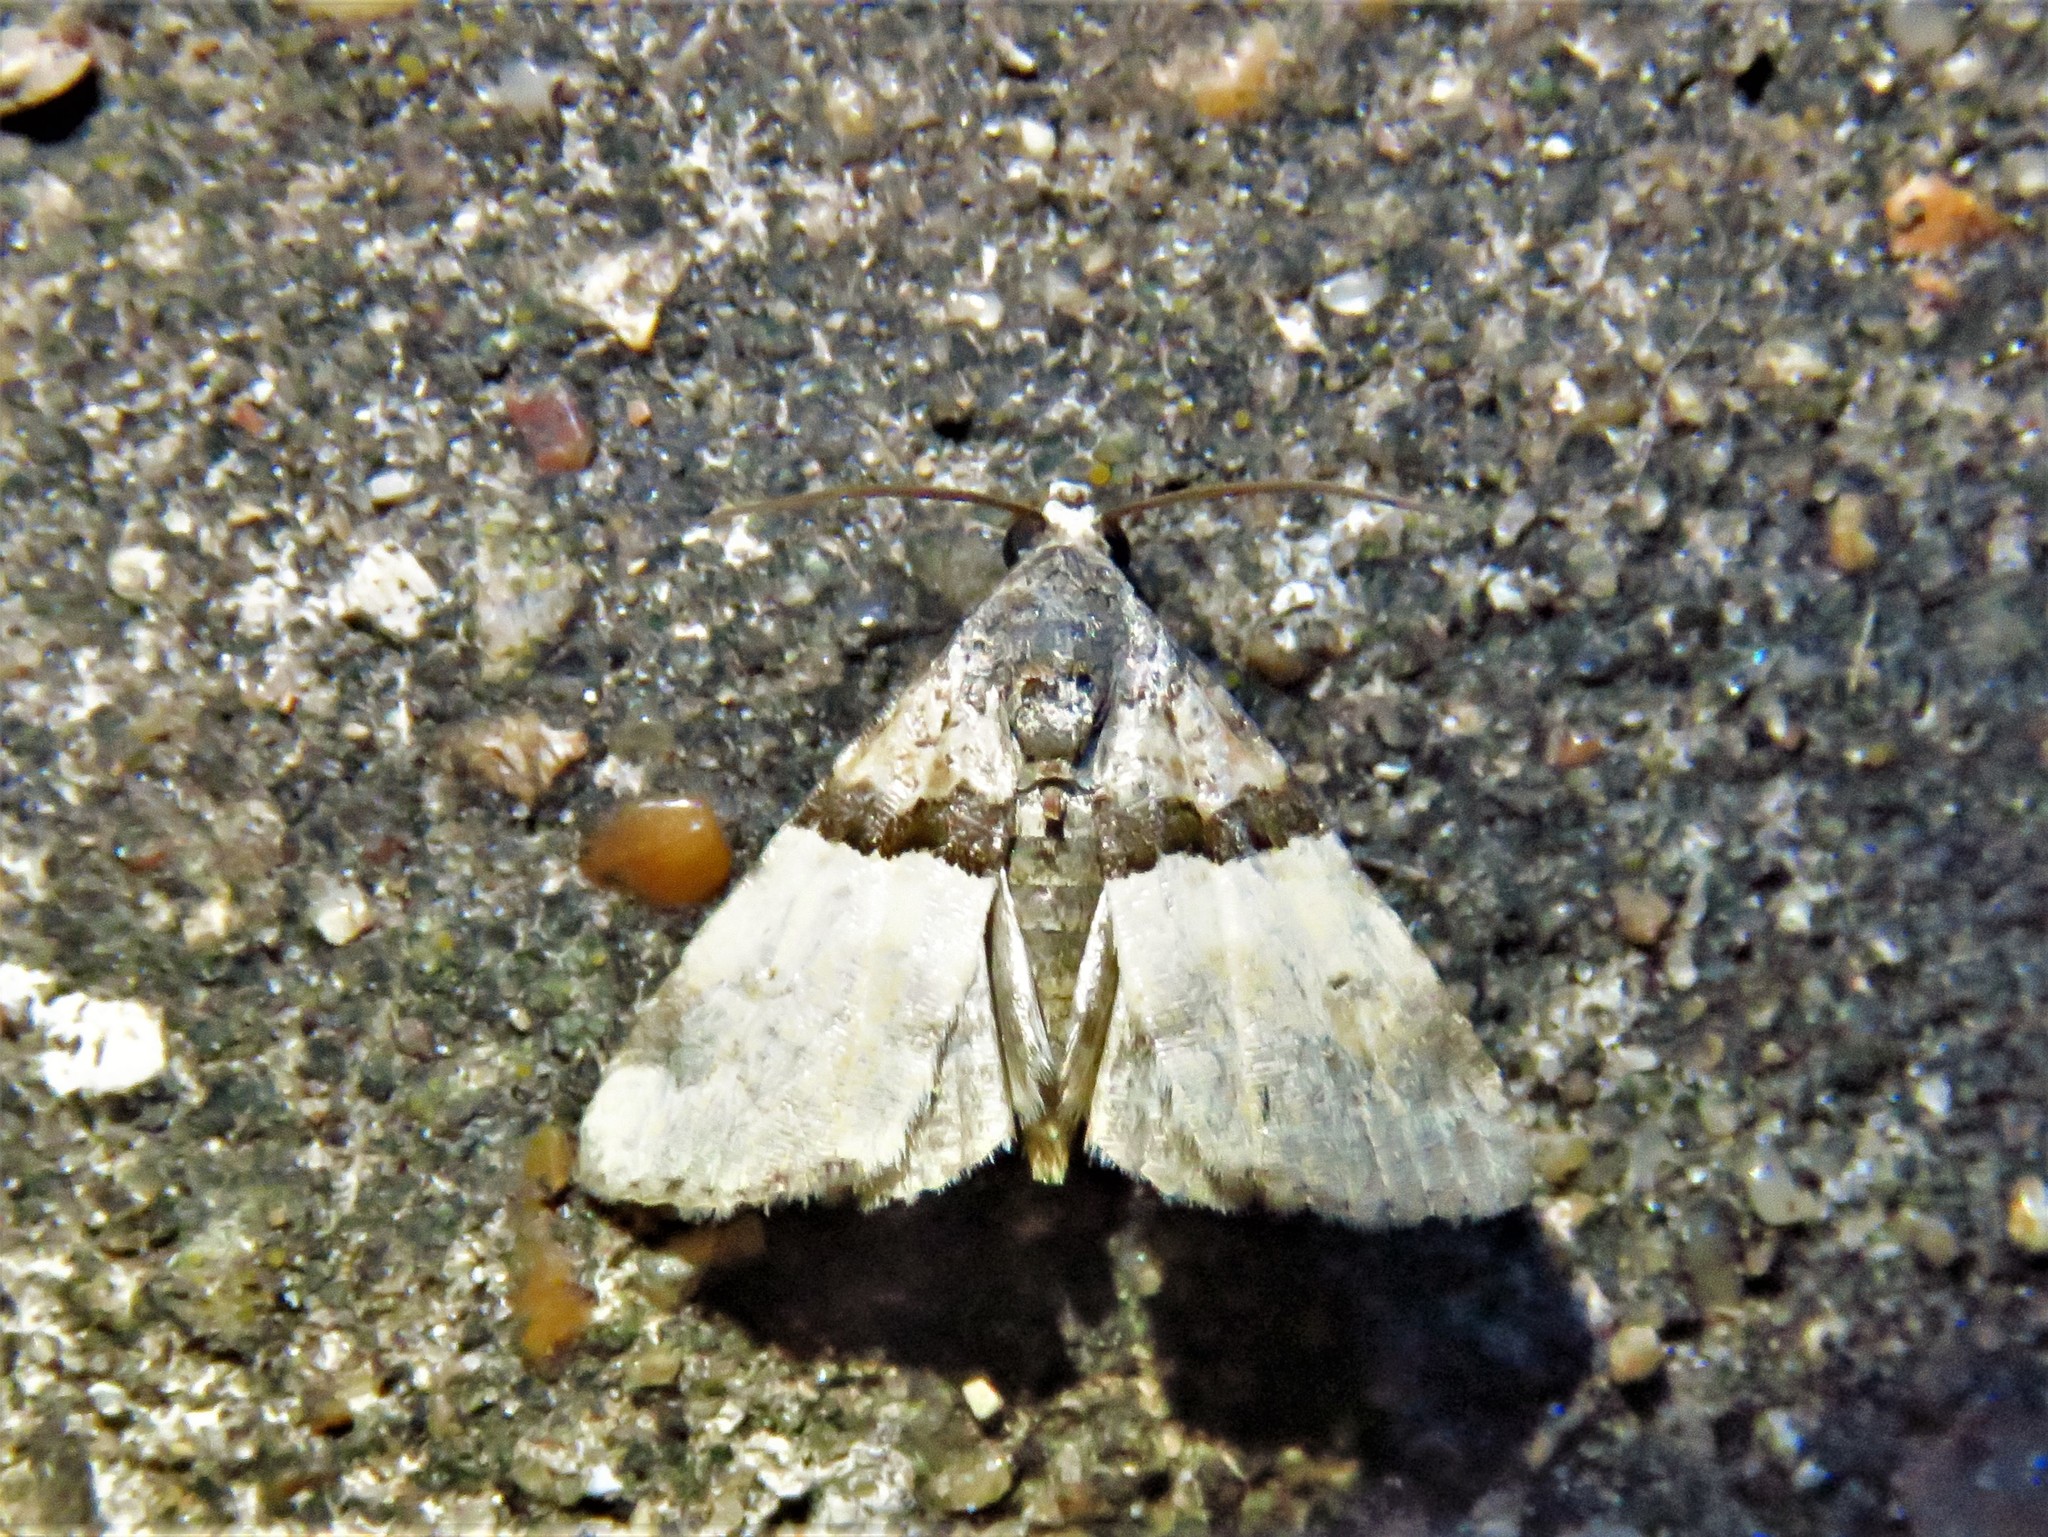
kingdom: Animalia
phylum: Arthropoda
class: Insecta
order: Lepidoptera
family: Noctuidae
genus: Cobubatha
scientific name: Cobubatha dividua
